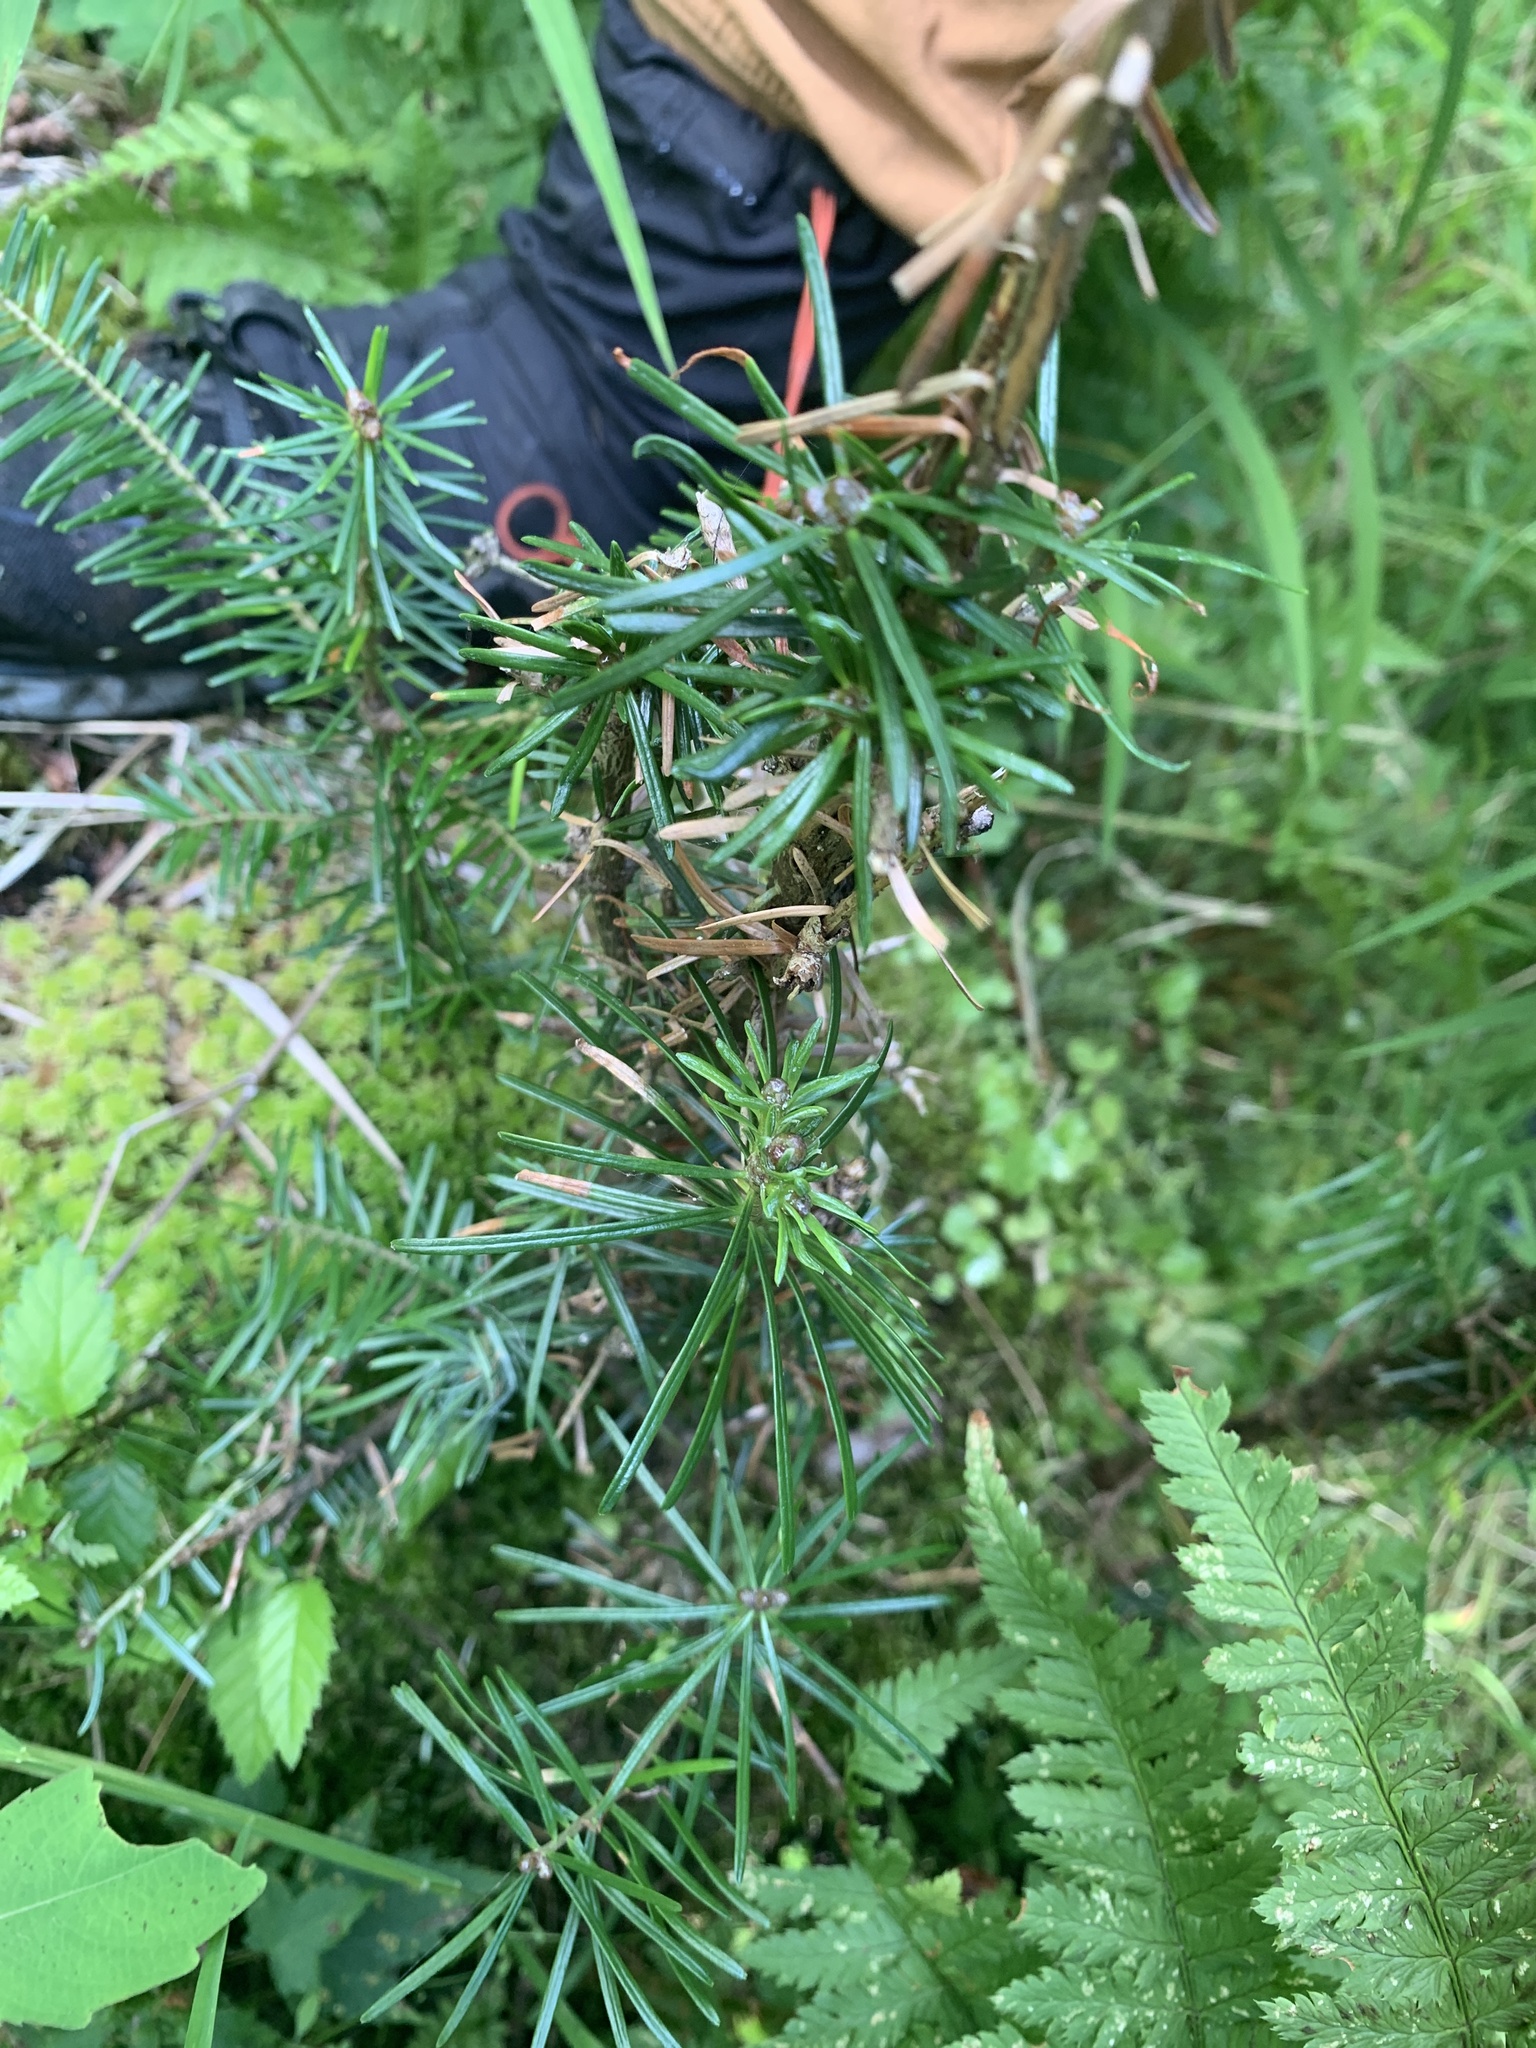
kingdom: Plantae
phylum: Tracheophyta
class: Pinopsida
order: Pinales
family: Pinaceae
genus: Abies
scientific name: Abies balsamea
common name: Balsam fir
